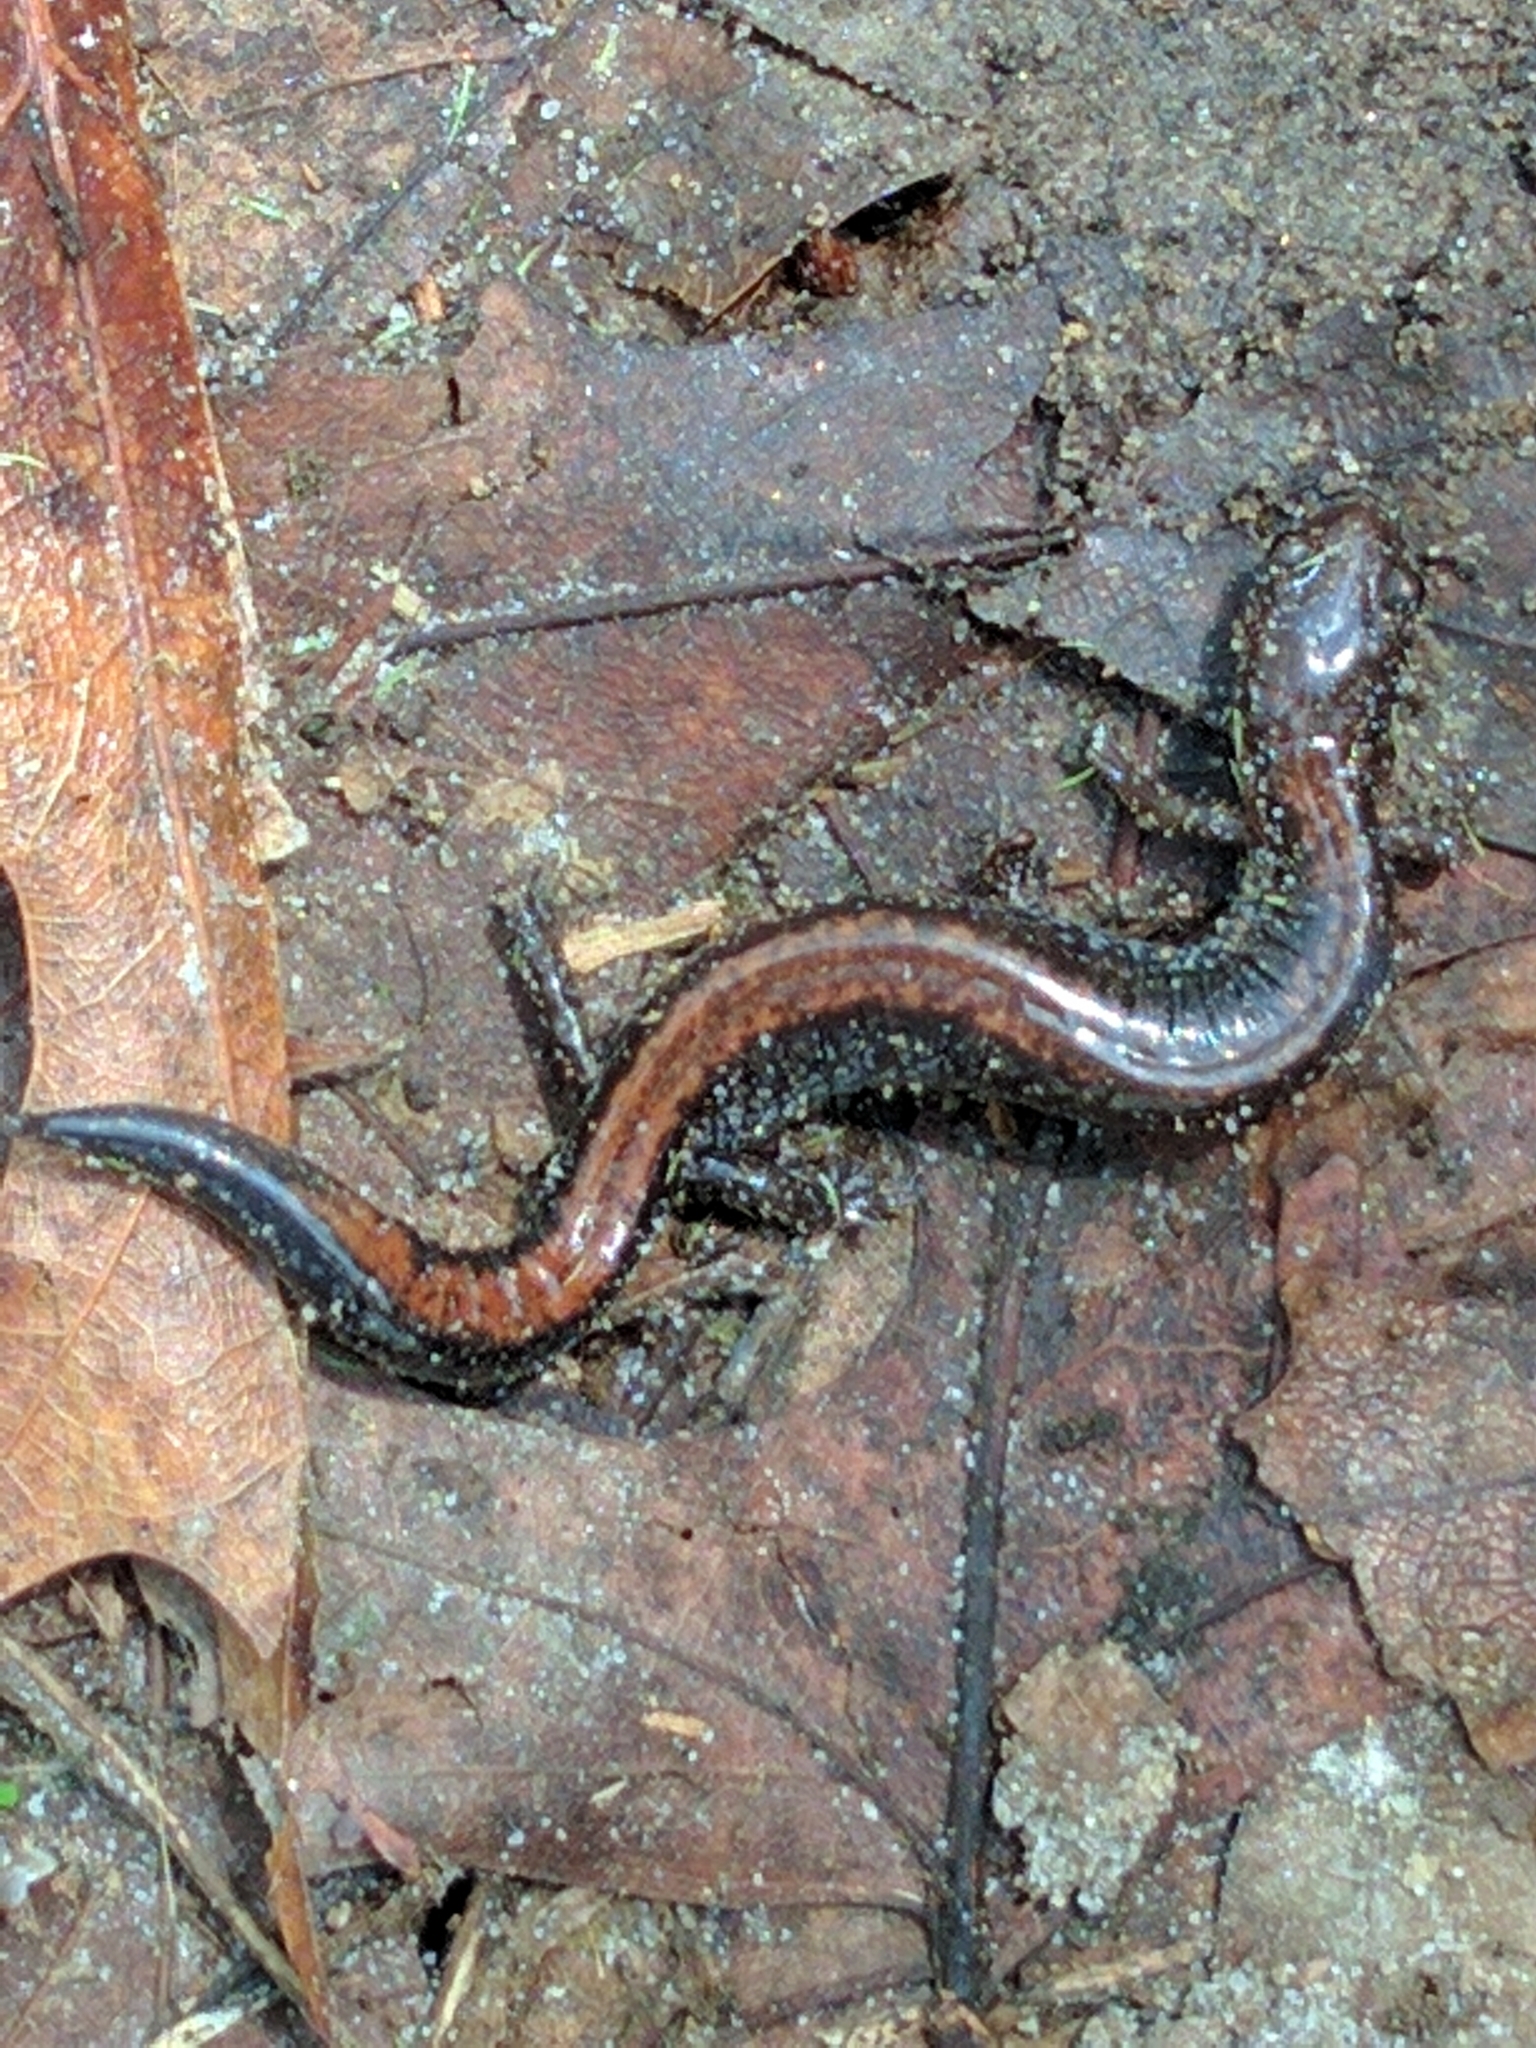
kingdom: Animalia
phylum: Chordata
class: Amphibia
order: Caudata
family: Plethodontidae
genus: Plethodon
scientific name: Plethodon cinereus
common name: Redback salamander
